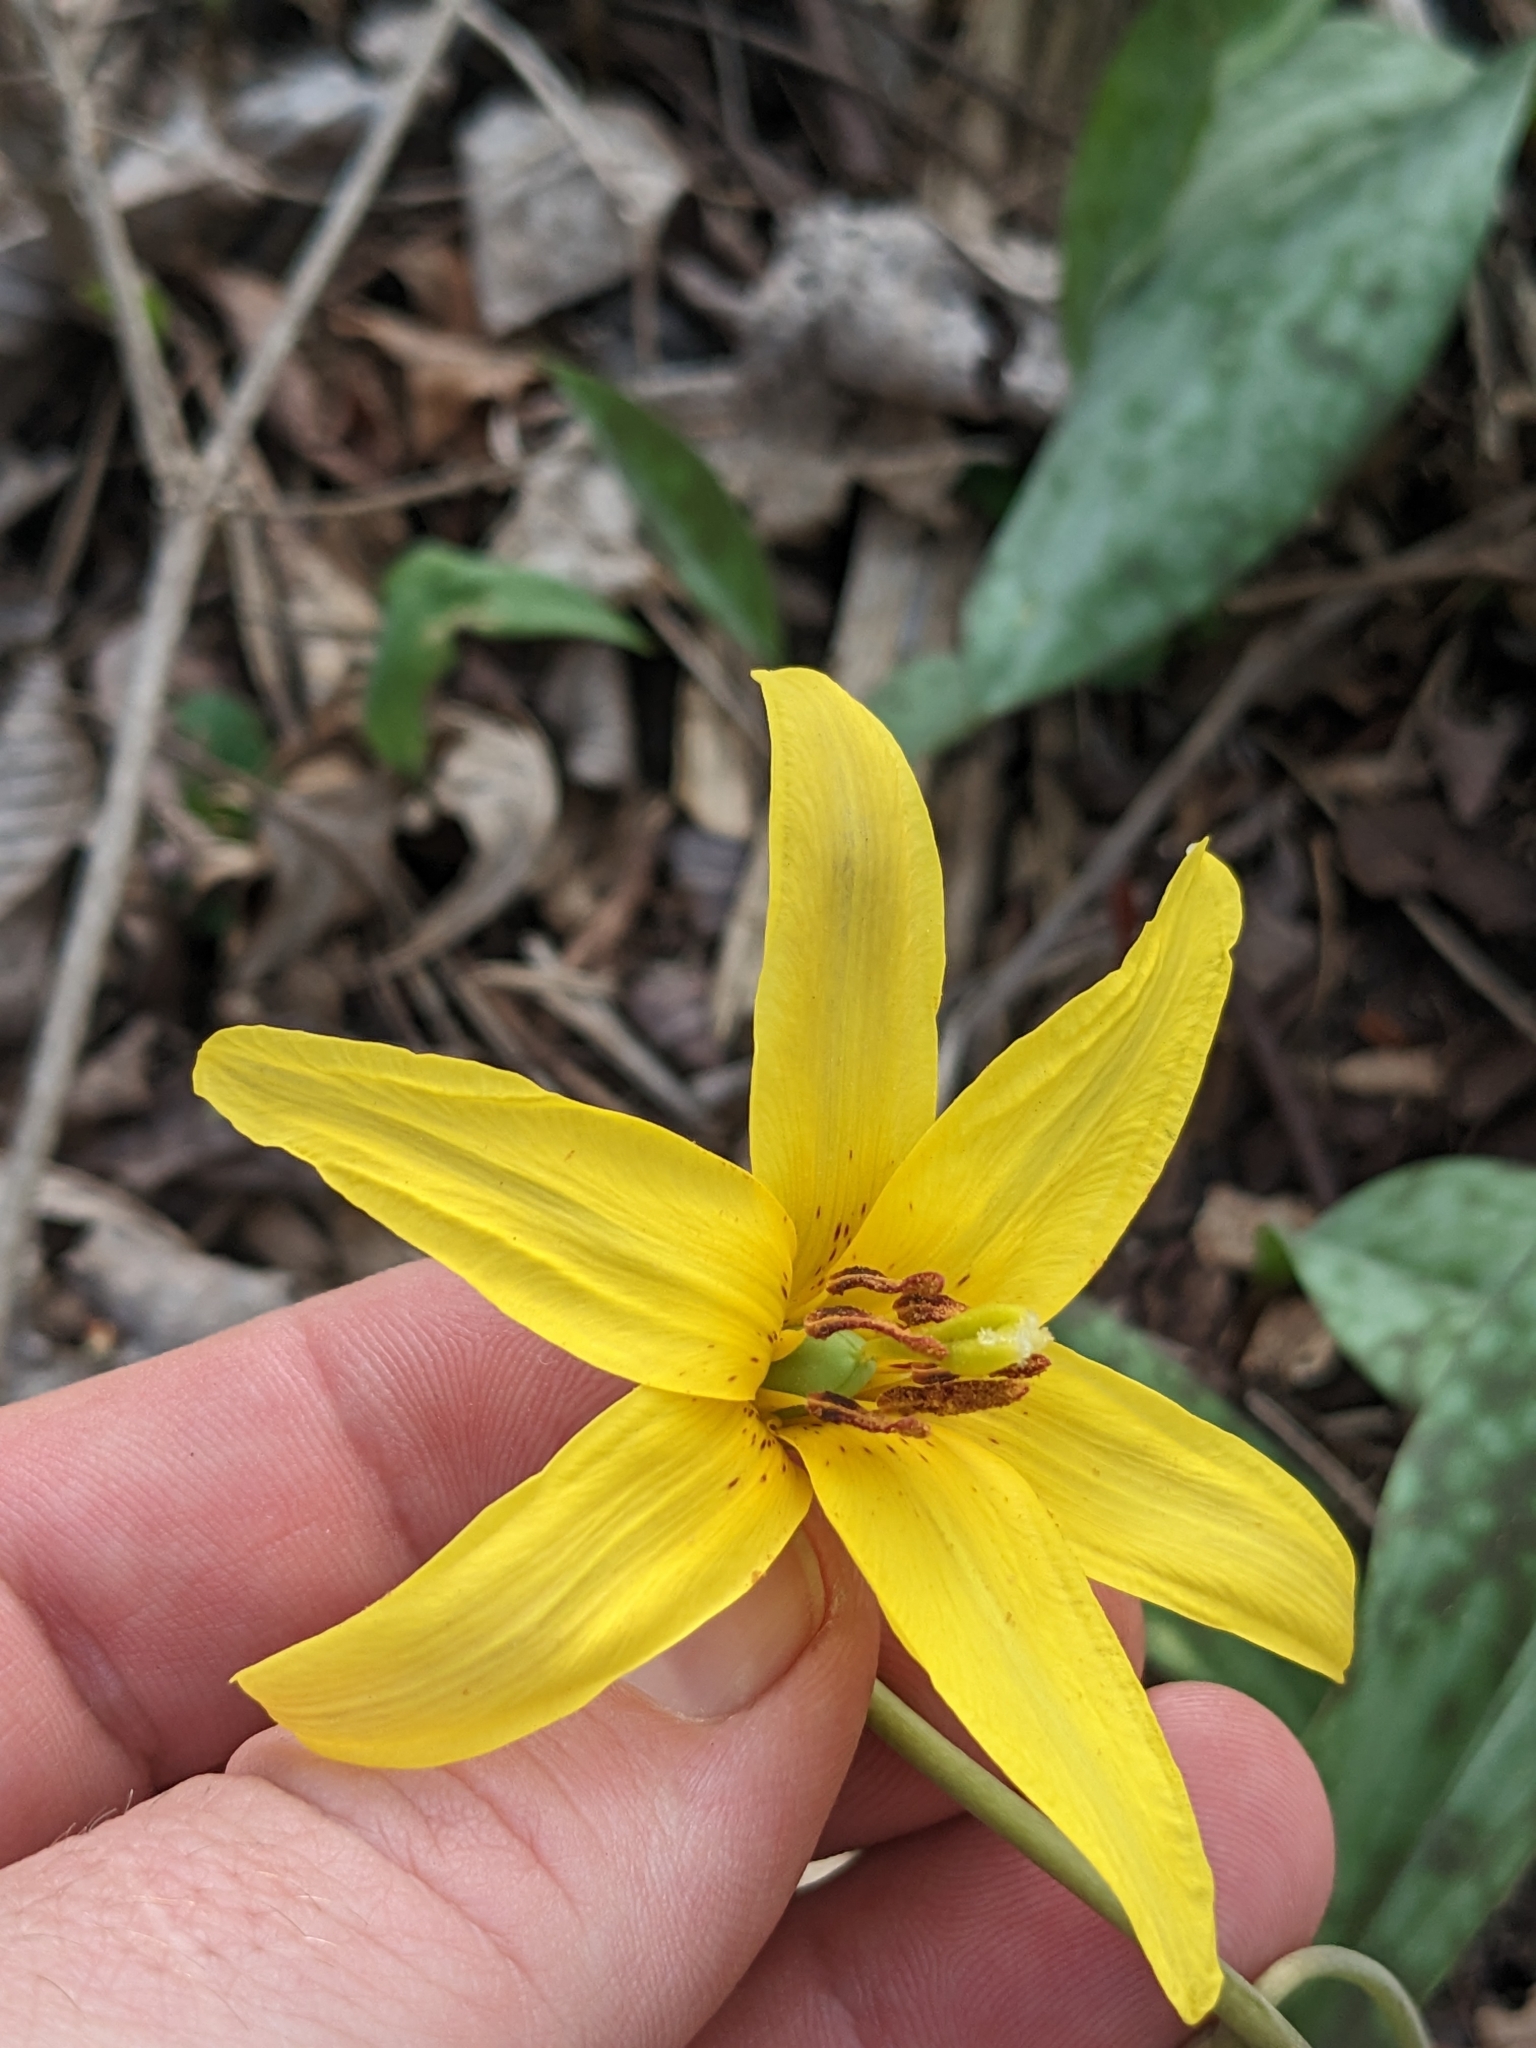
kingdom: Plantae
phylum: Tracheophyta
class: Liliopsida
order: Liliales
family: Liliaceae
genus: Erythronium
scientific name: Erythronium americanum
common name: Yellow adder's-tongue
